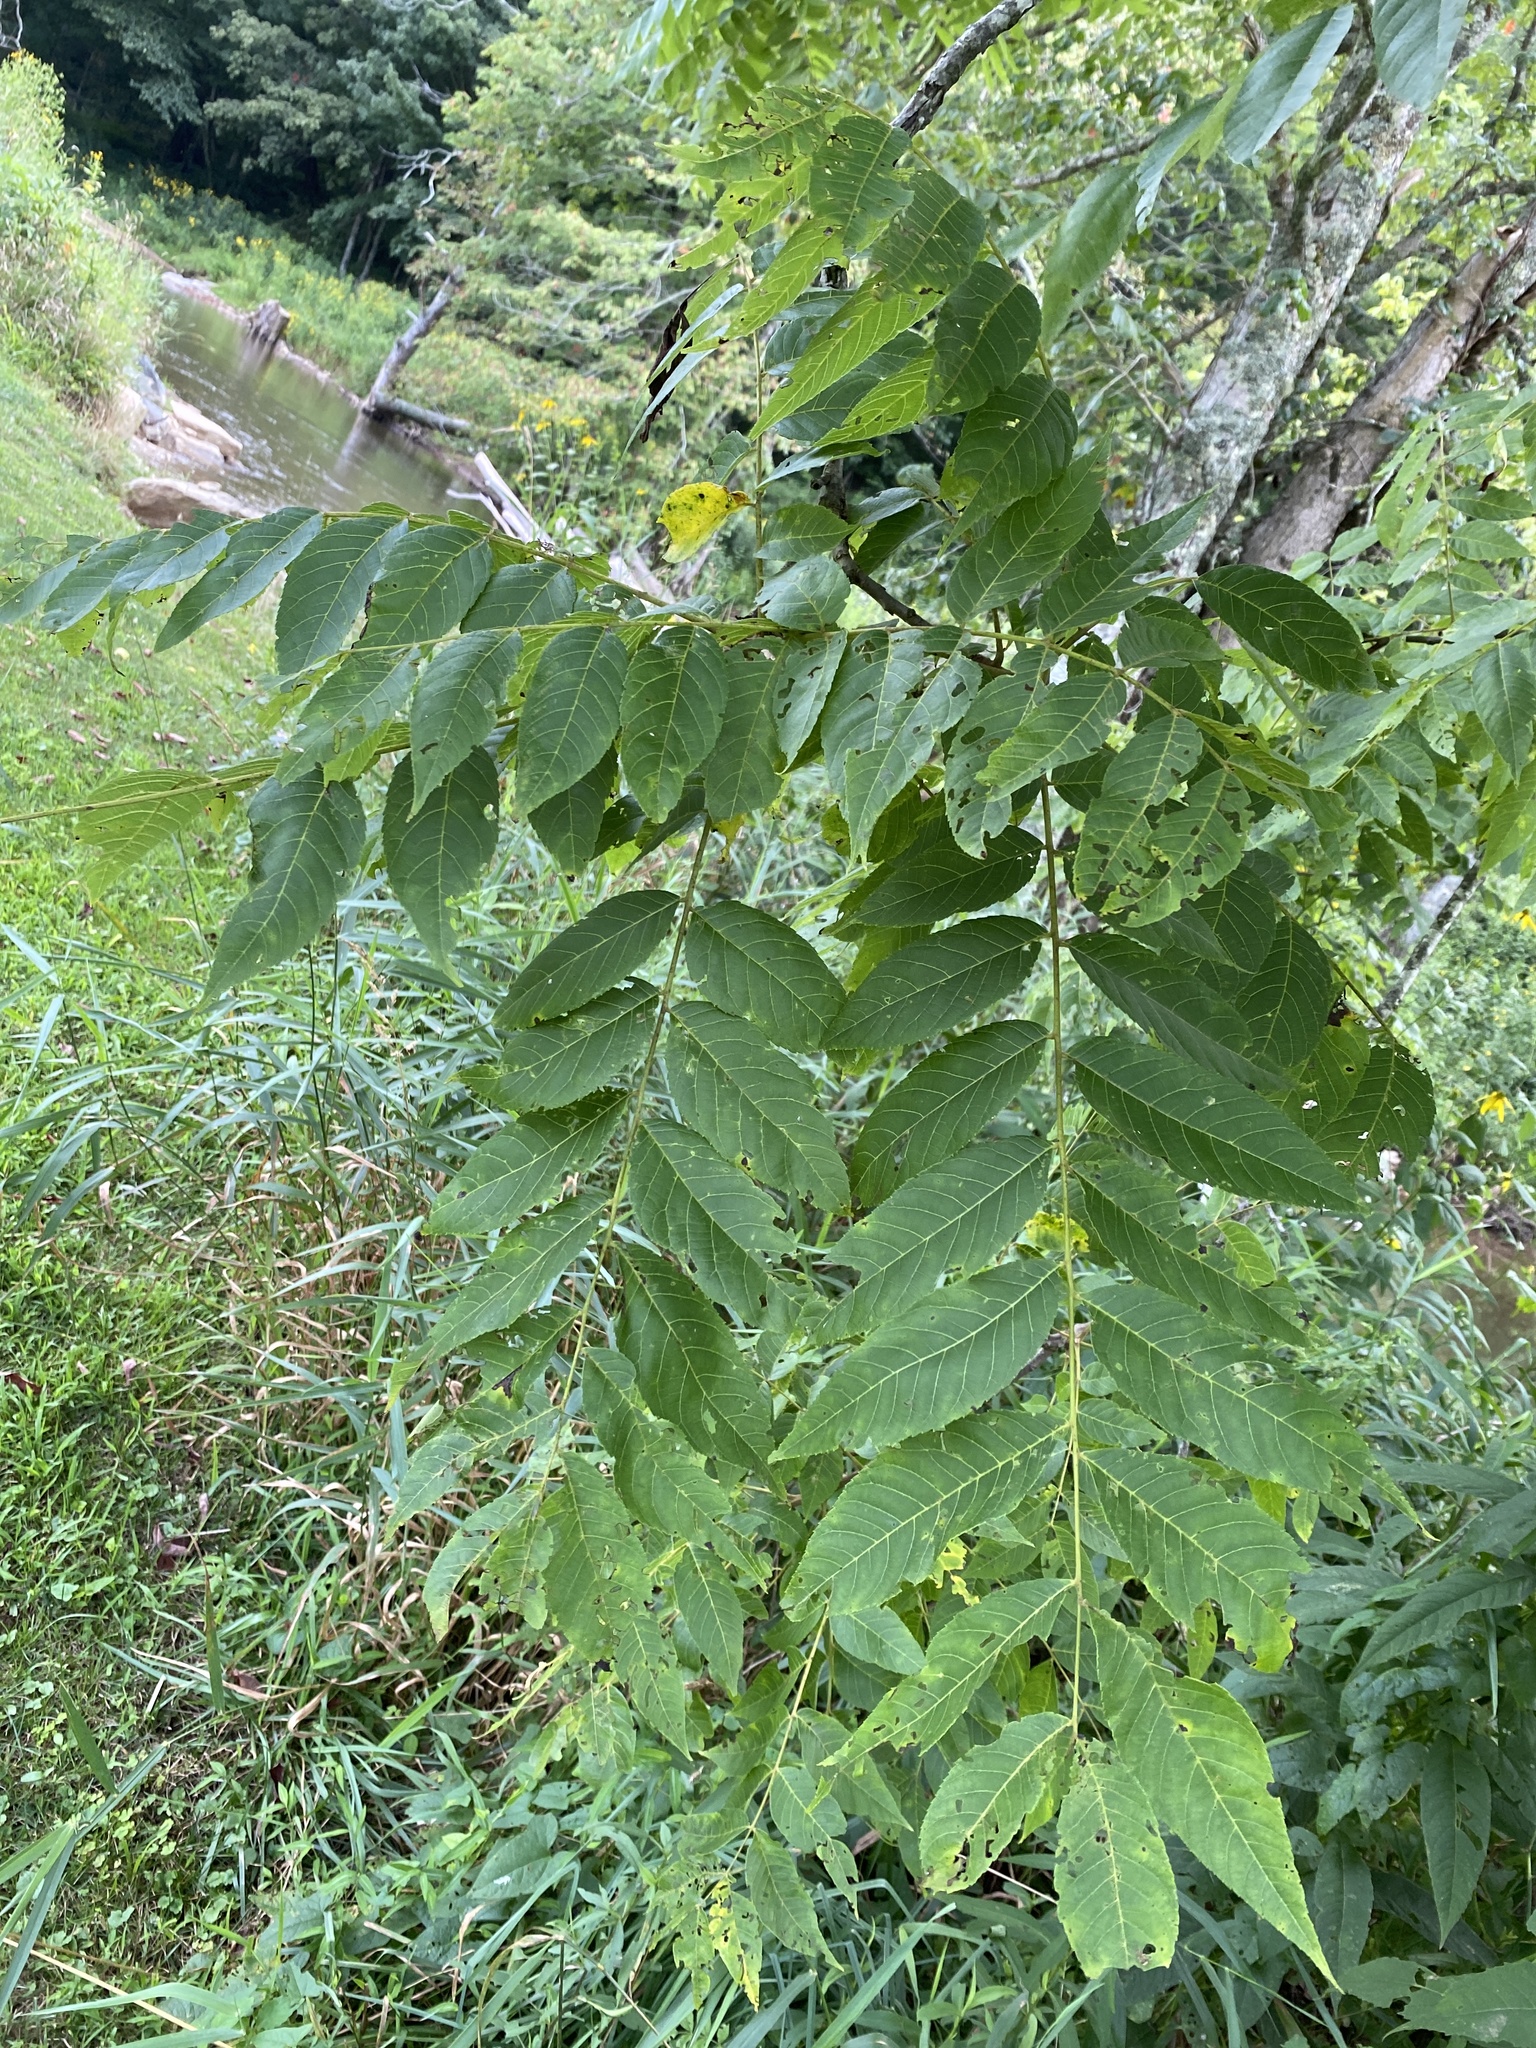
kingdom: Plantae
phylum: Tracheophyta
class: Magnoliopsida
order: Fagales
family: Juglandaceae
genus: Juglans
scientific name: Juglans nigra
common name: Black walnut
